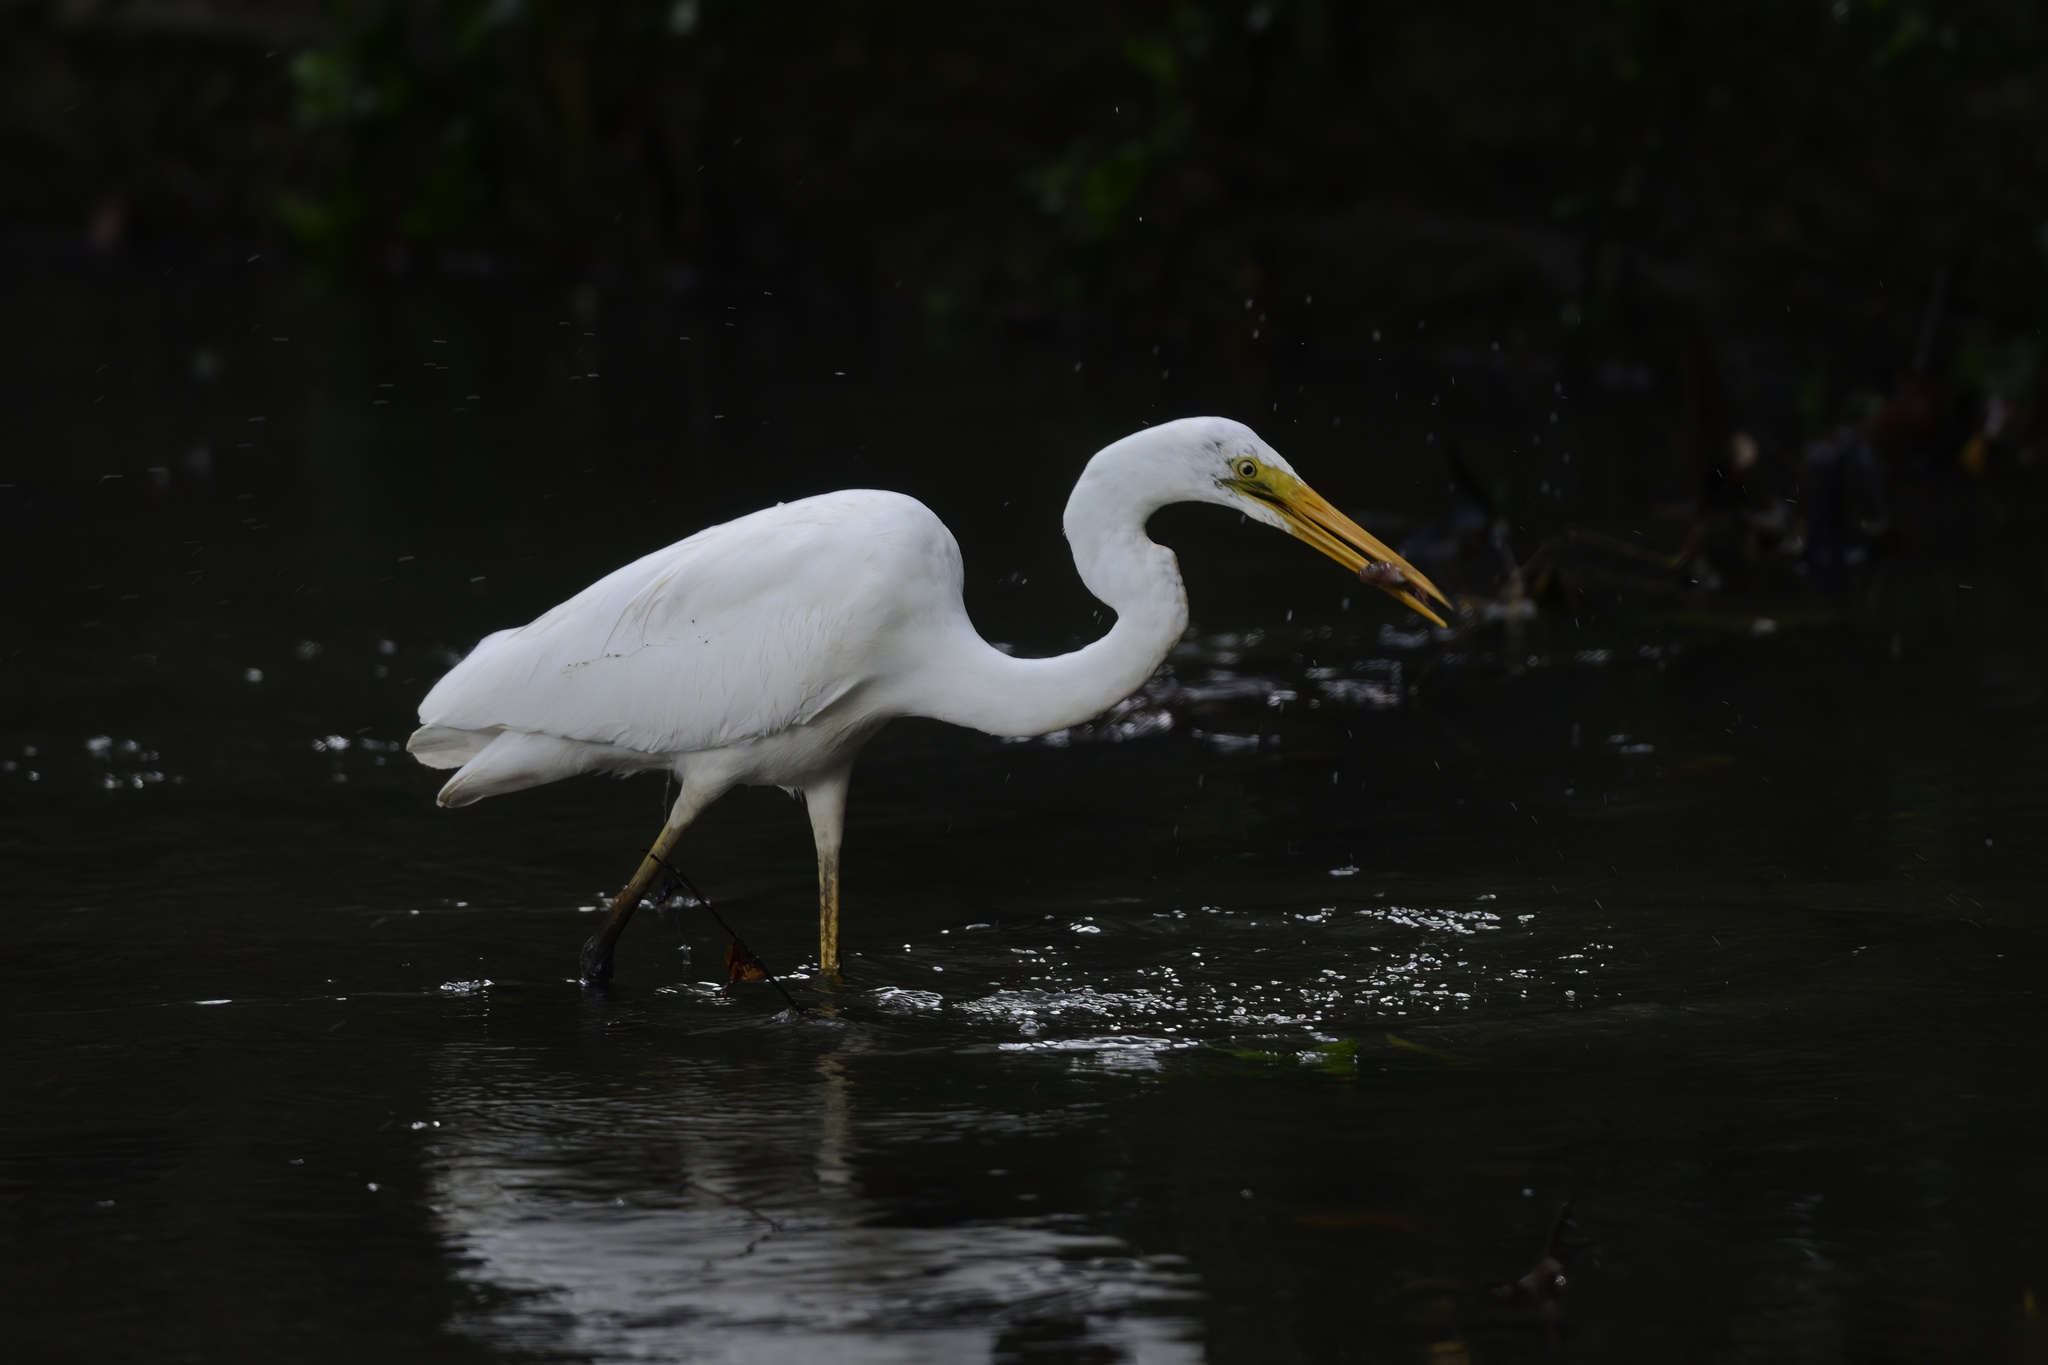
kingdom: Animalia
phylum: Chordata
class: Aves
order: Pelecaniformes
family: Ardeidae
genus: Ardea
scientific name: Ardea alba
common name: Great egret
